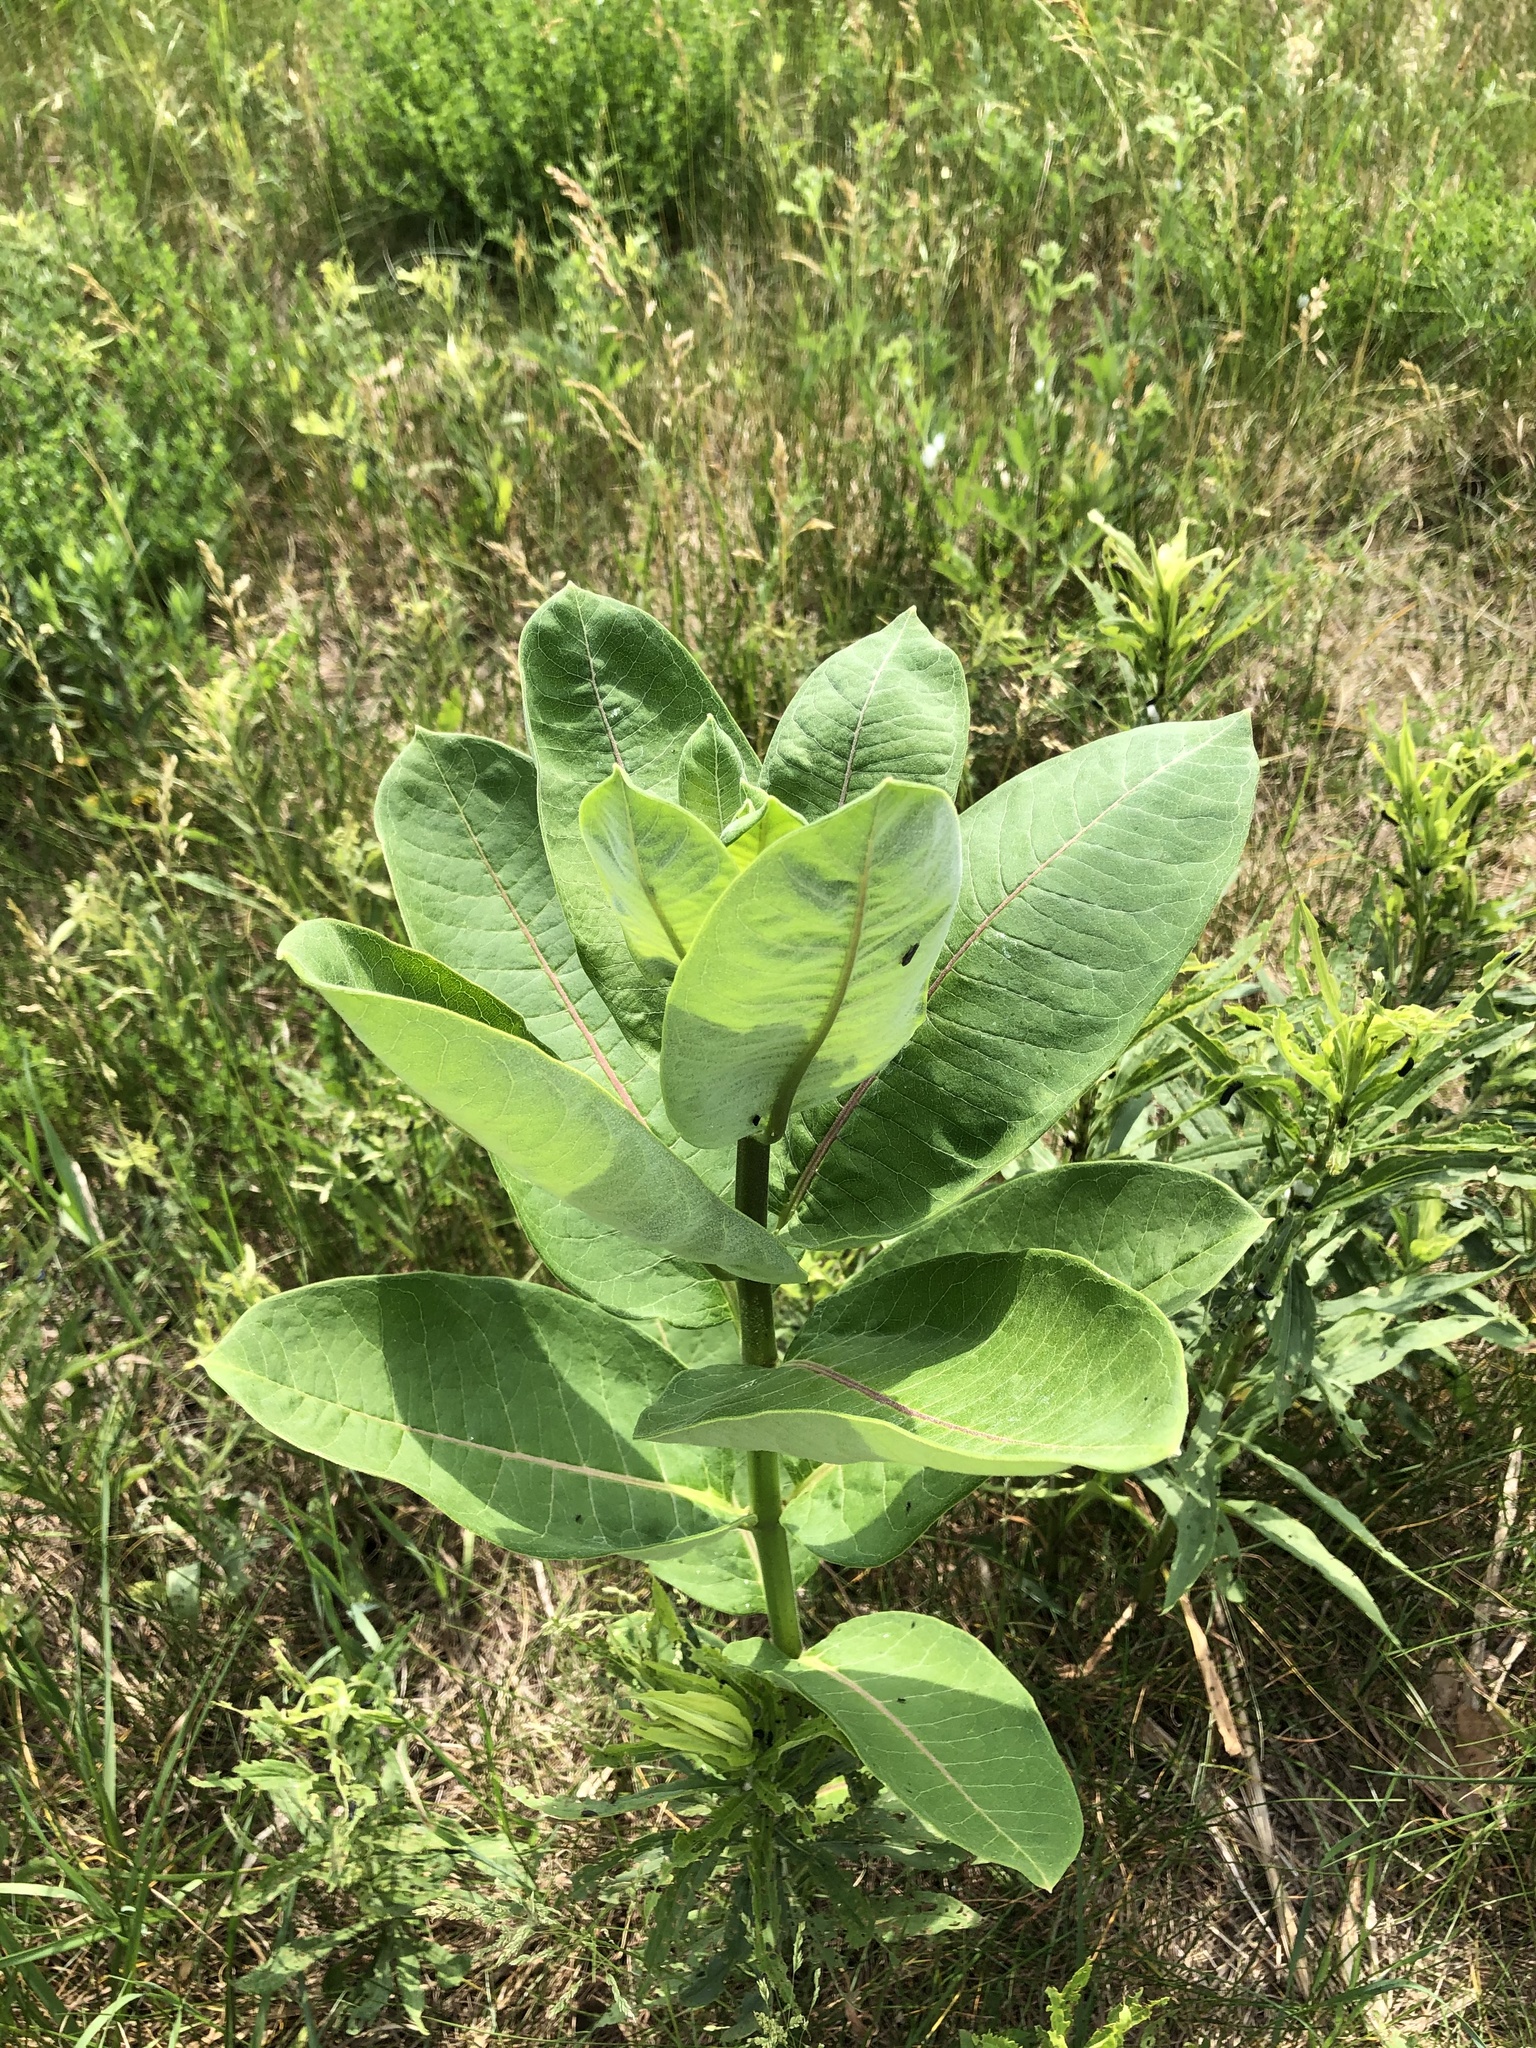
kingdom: Plantae
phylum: Tracheophyta
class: Magnoliopsida
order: Gentianales
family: Apocynaceae
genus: Asclepias
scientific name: Asclepias syriaca
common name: Common milkweed
